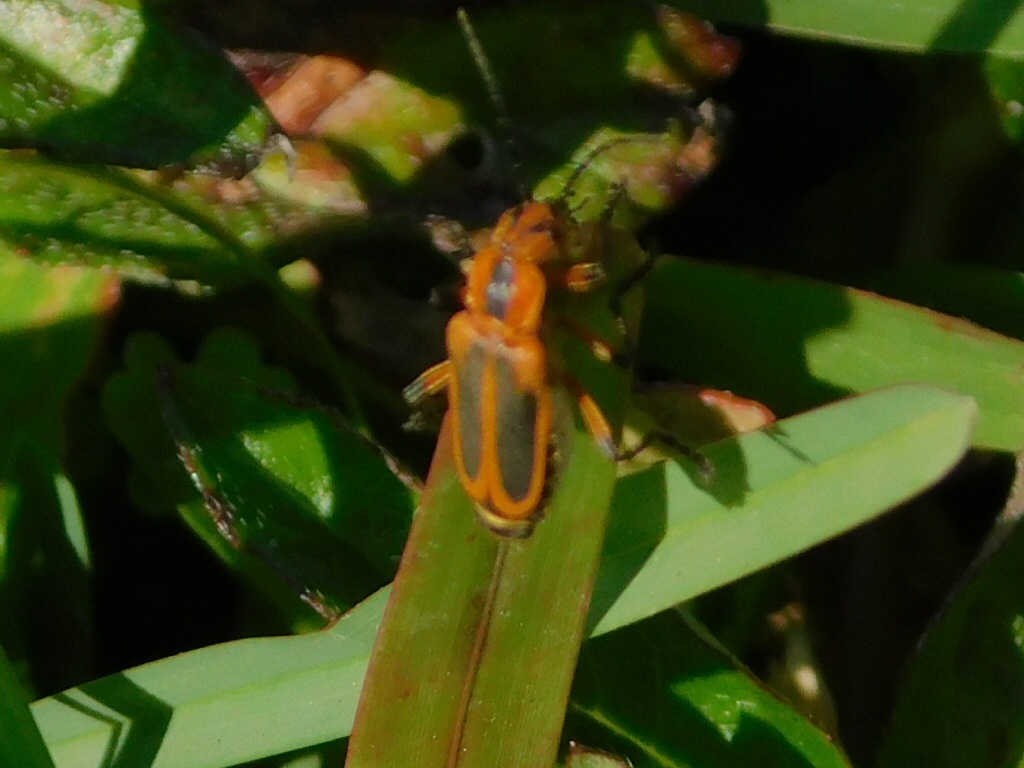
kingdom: Animalia
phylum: Arthropoda
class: Insecta
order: Coleoptera
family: Cantharidae
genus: Chauliognathus
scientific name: Chauliognathus marginatus
